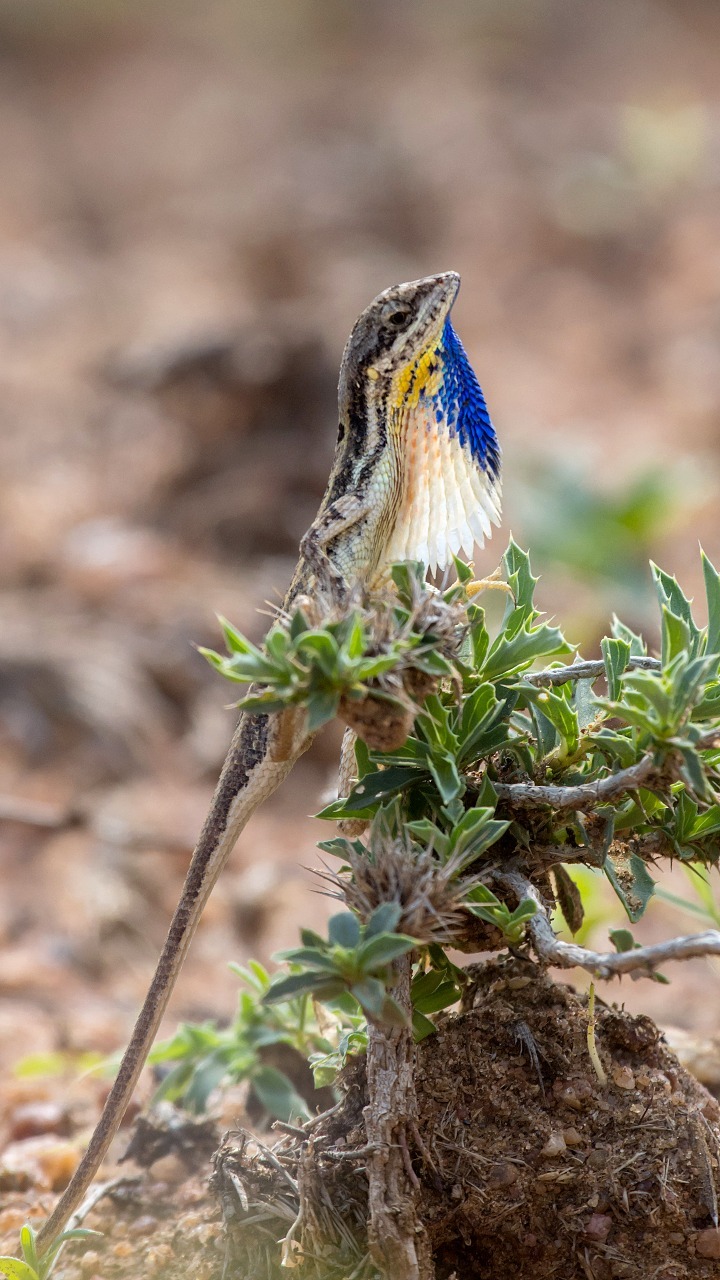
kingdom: Animalia
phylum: Chordata
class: Squamata
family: Agamidae
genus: Sitana
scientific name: Sitana marudhamneydhal
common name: Attenborough’s fan-throated lizard
